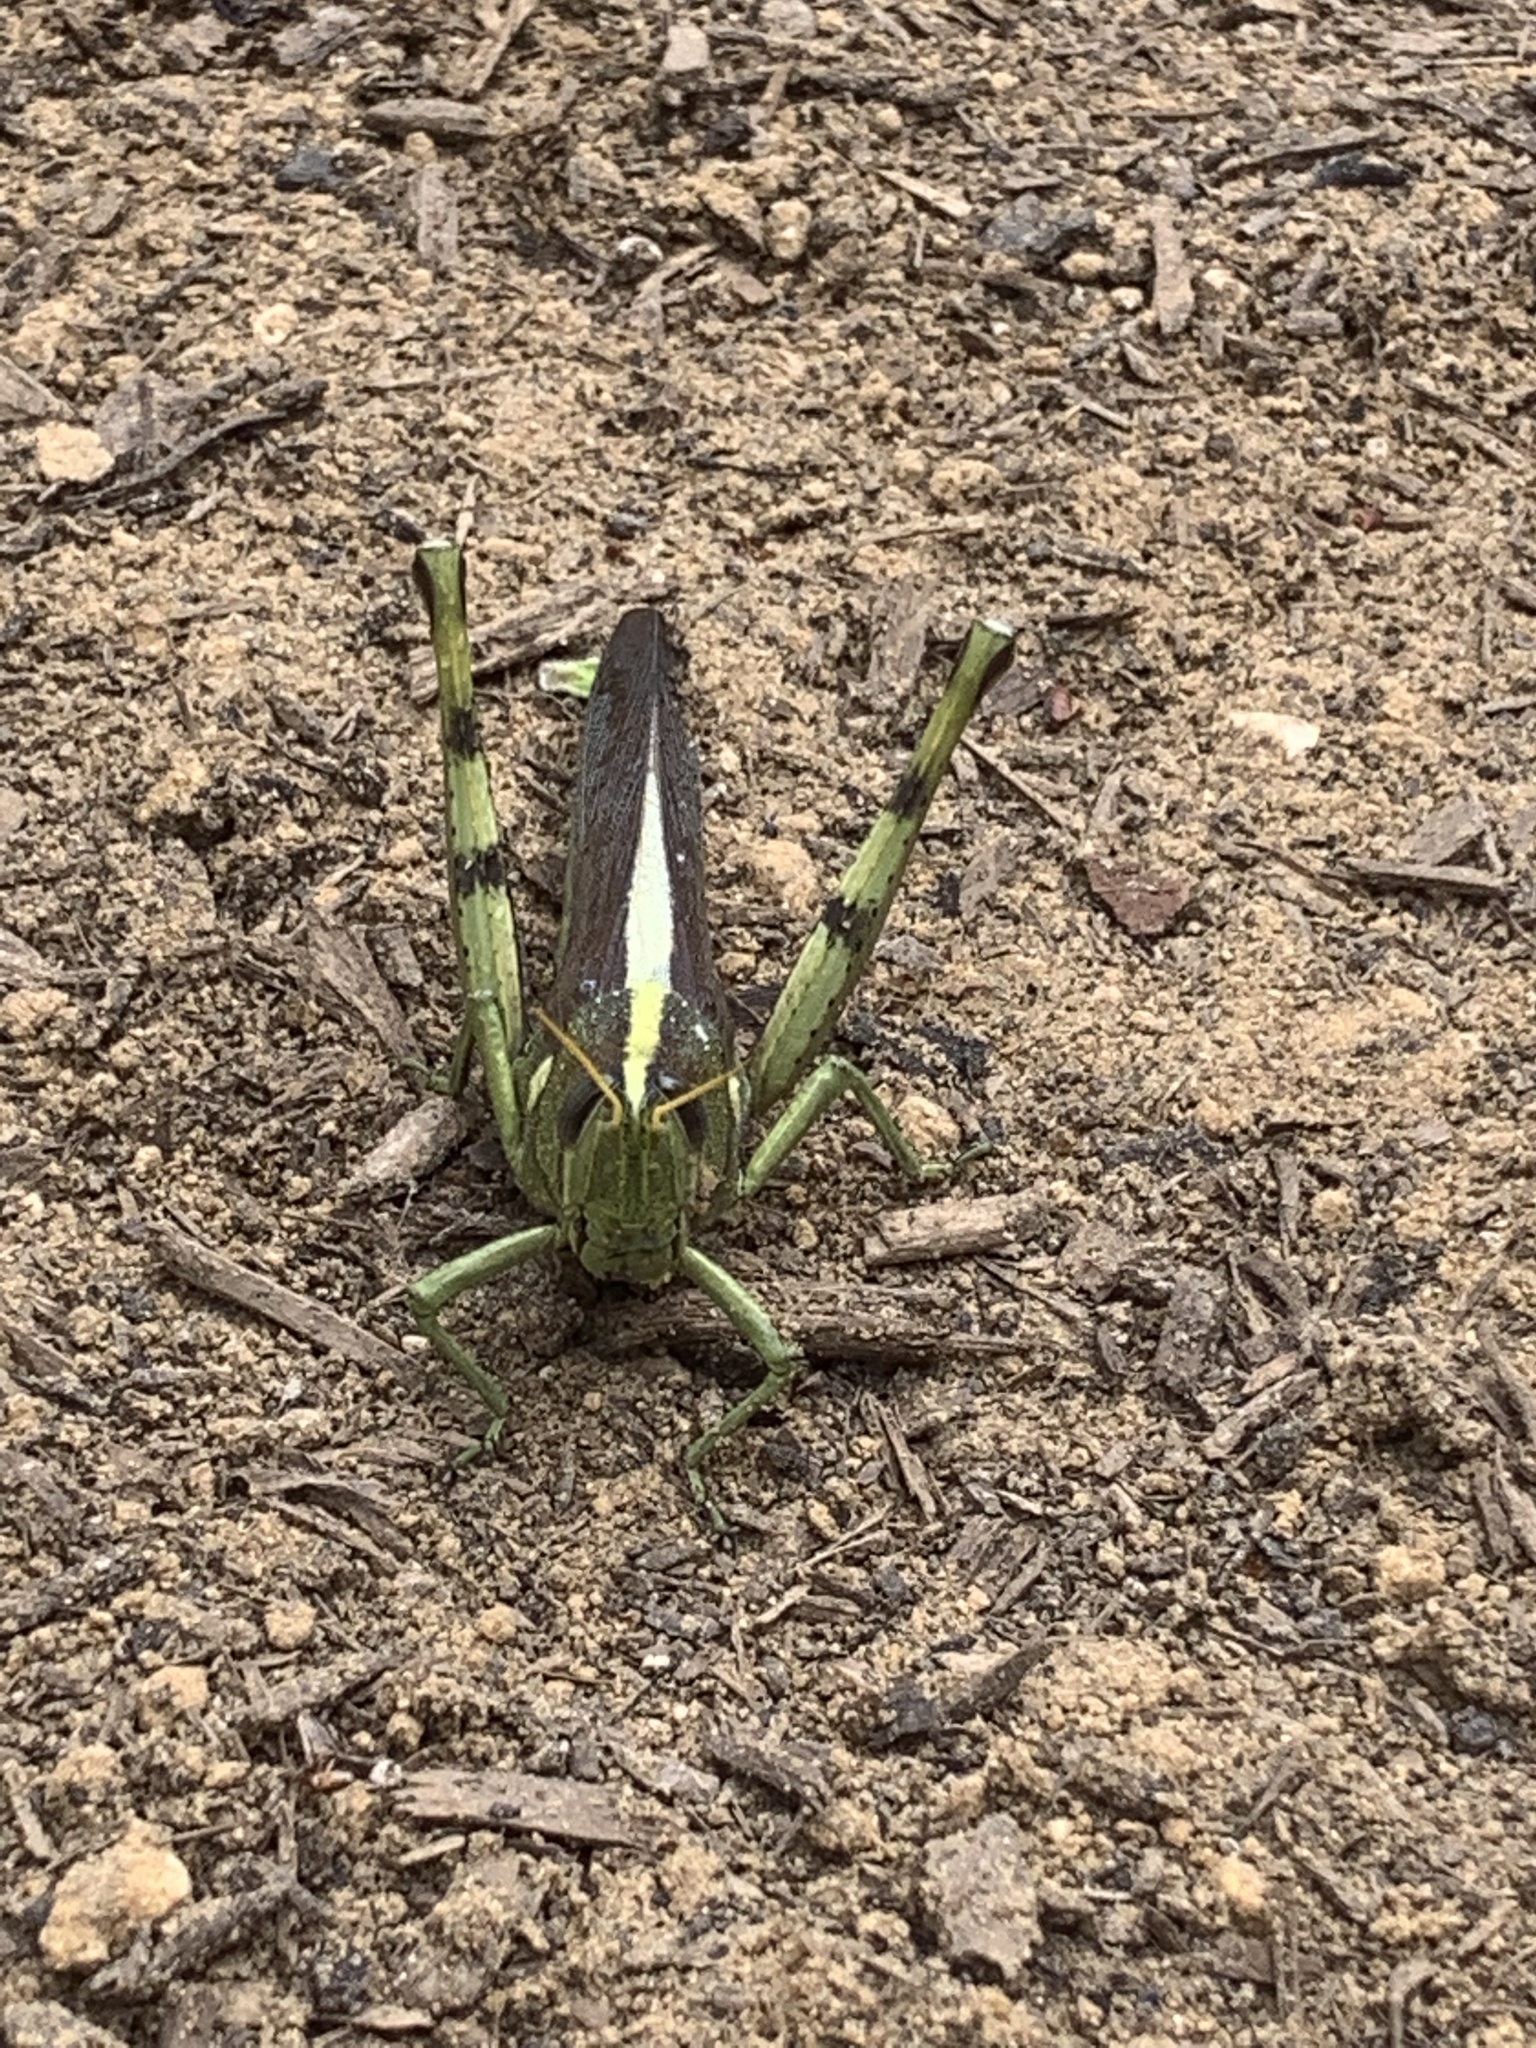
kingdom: Animalia
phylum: Arthropoda
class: Insecta
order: Orthoptera
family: Acrididae
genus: Schistocerca
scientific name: Schistocerca obscura
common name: Obscure bird grasshopper
